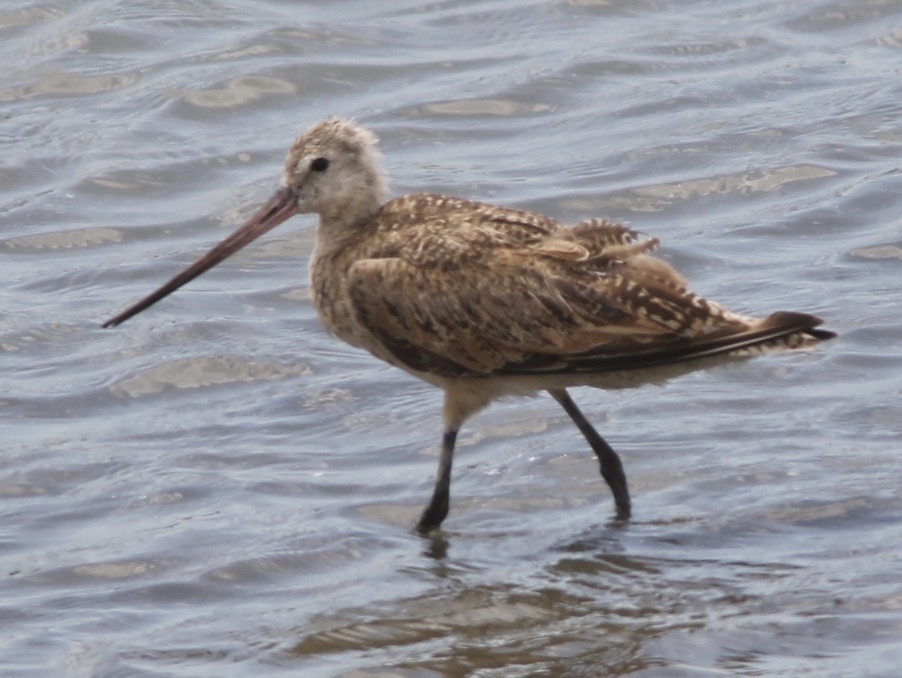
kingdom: Animalia
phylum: Chordata
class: Aves
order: Charadriiformes
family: Scolopacidae
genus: Limosa
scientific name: Limosa fedoa
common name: Marbled godwit
